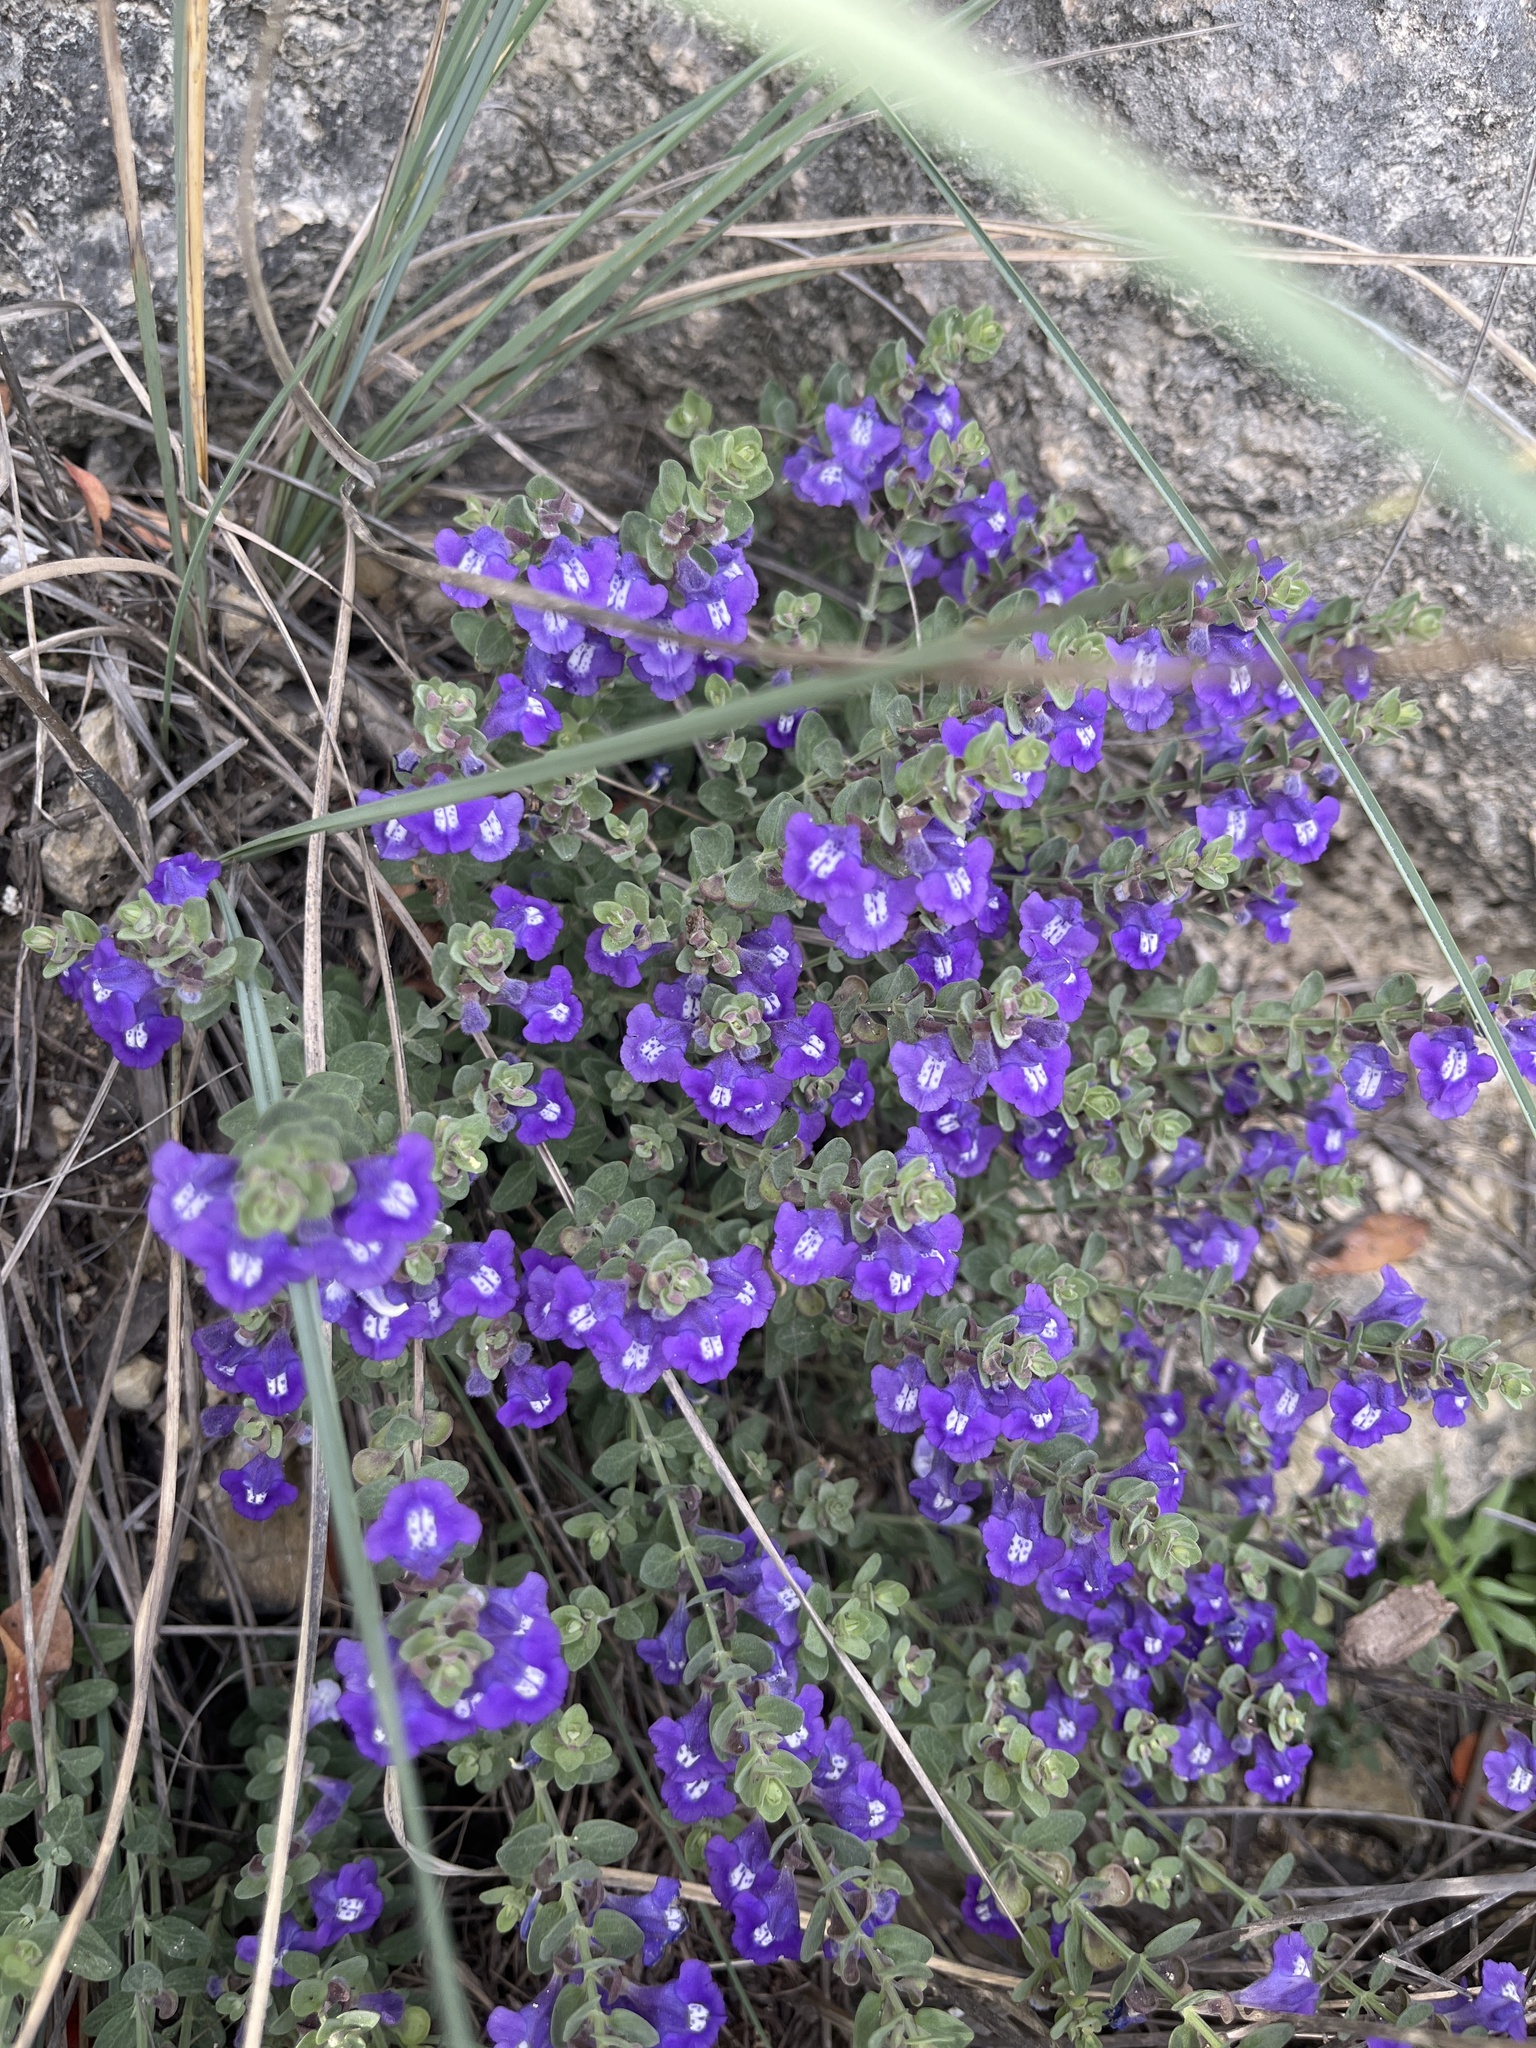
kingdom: Plantae
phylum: Tracheophyta
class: Magnoliopsida
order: Lamiales
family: Lamiaceae
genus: Scutellaria
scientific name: Scutellaria wrightii
